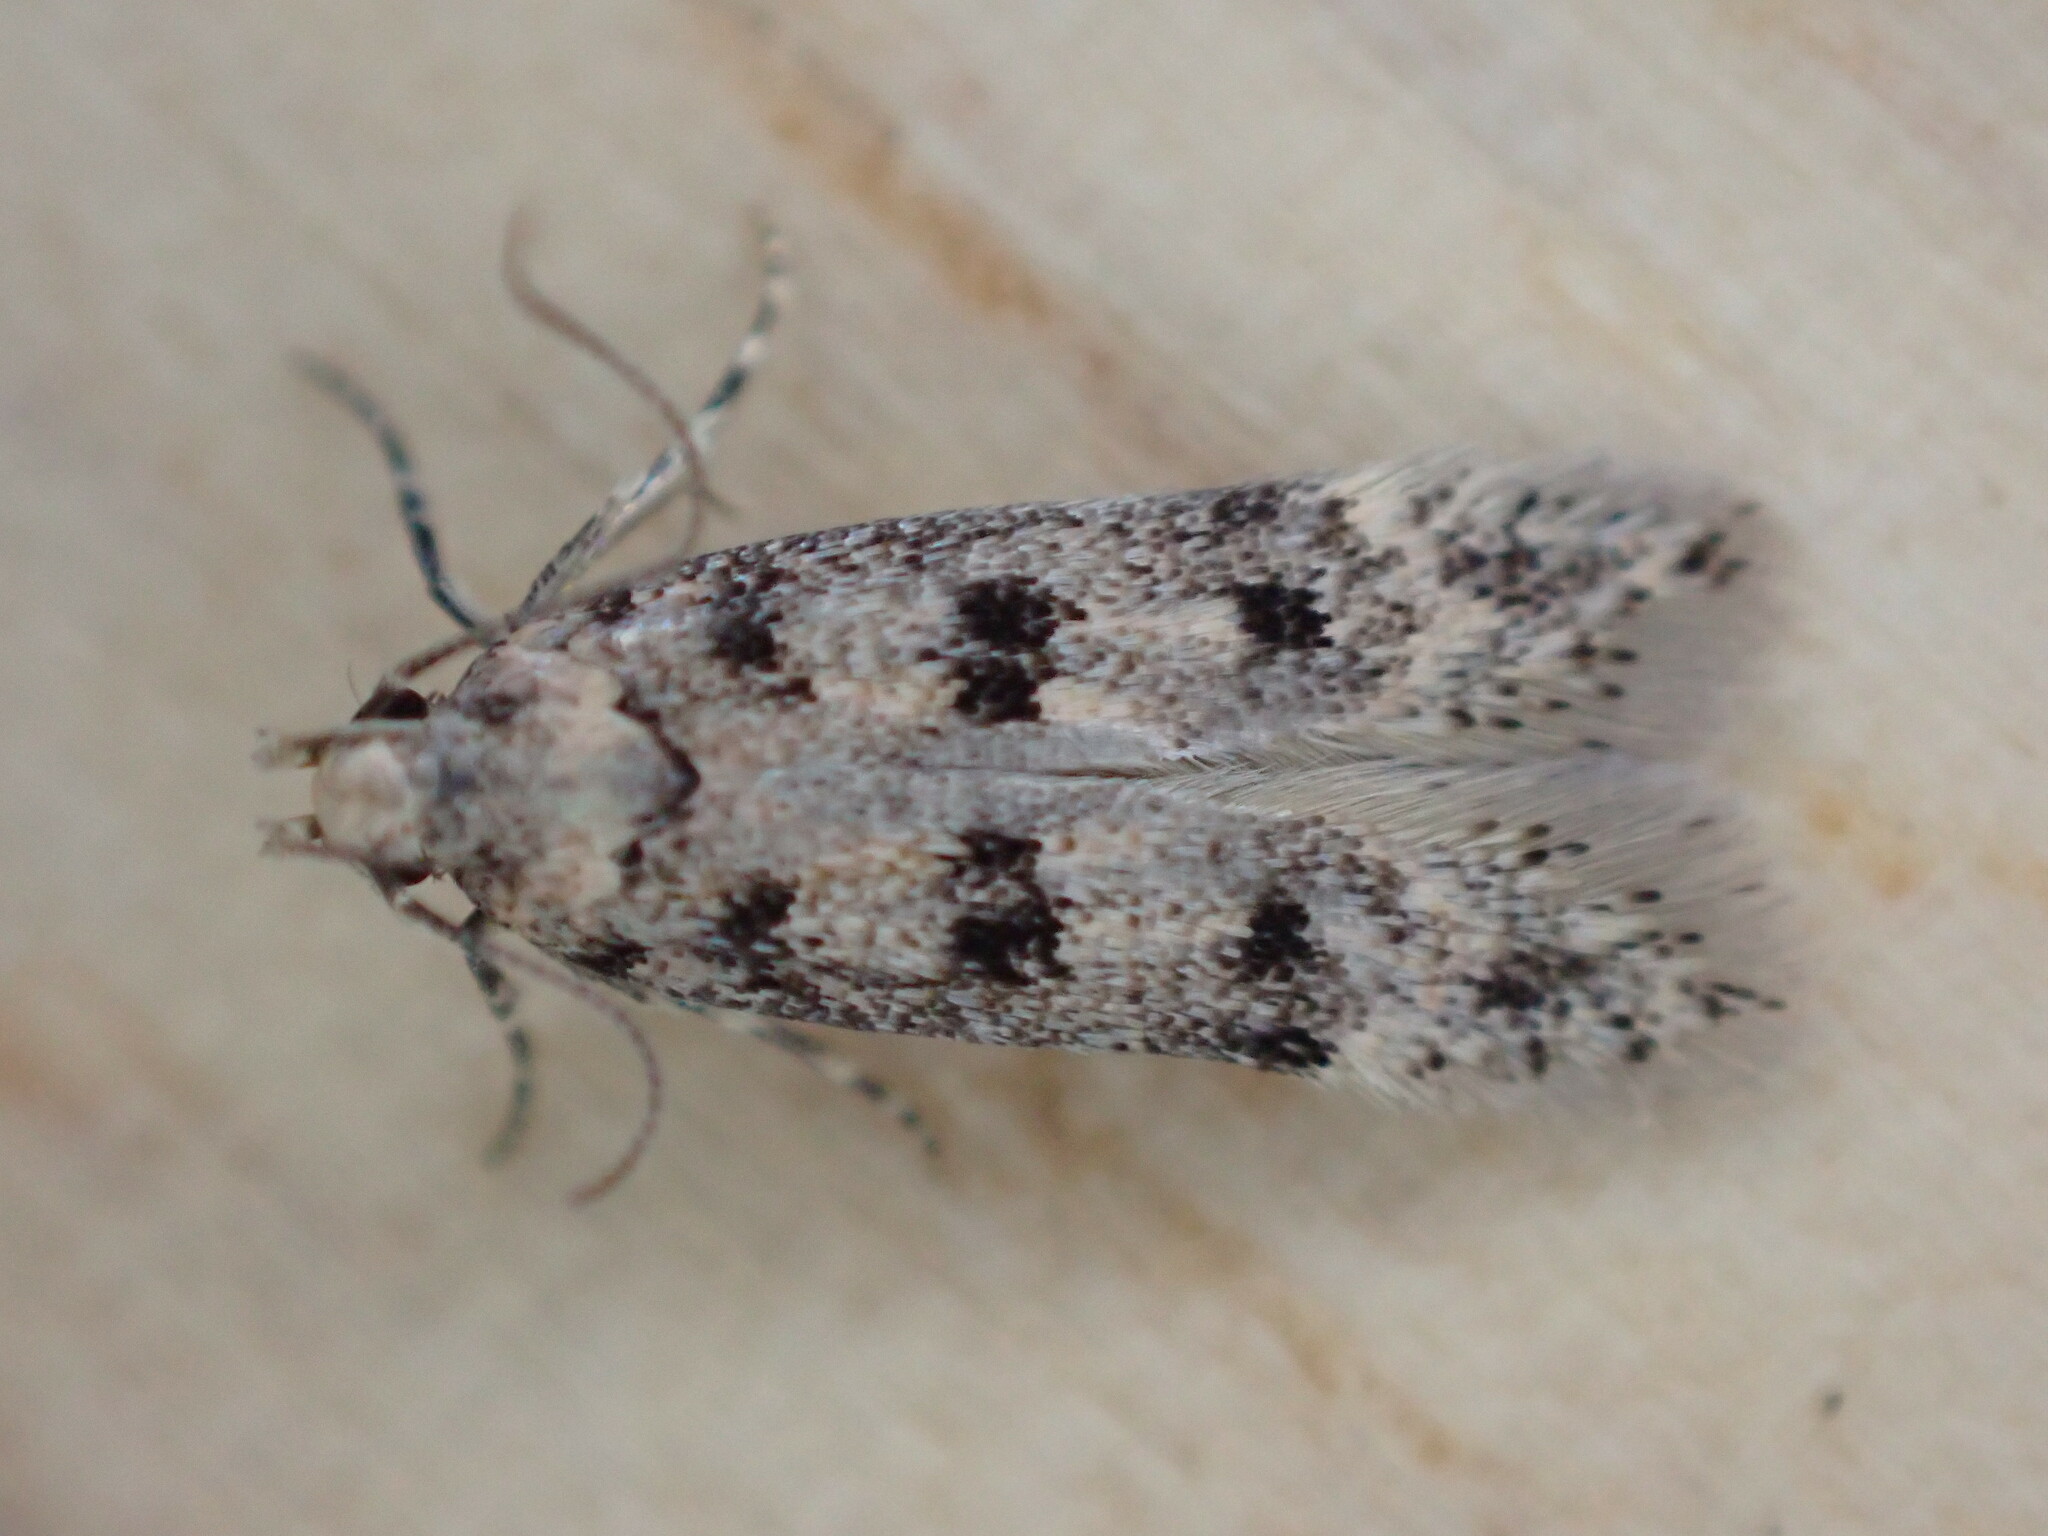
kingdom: Animalia
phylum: Arthropoda
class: Insecta
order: Lepidoptera
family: Gelechiidae
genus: Bryotropha
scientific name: Bryotropha domestica
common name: House groundling
